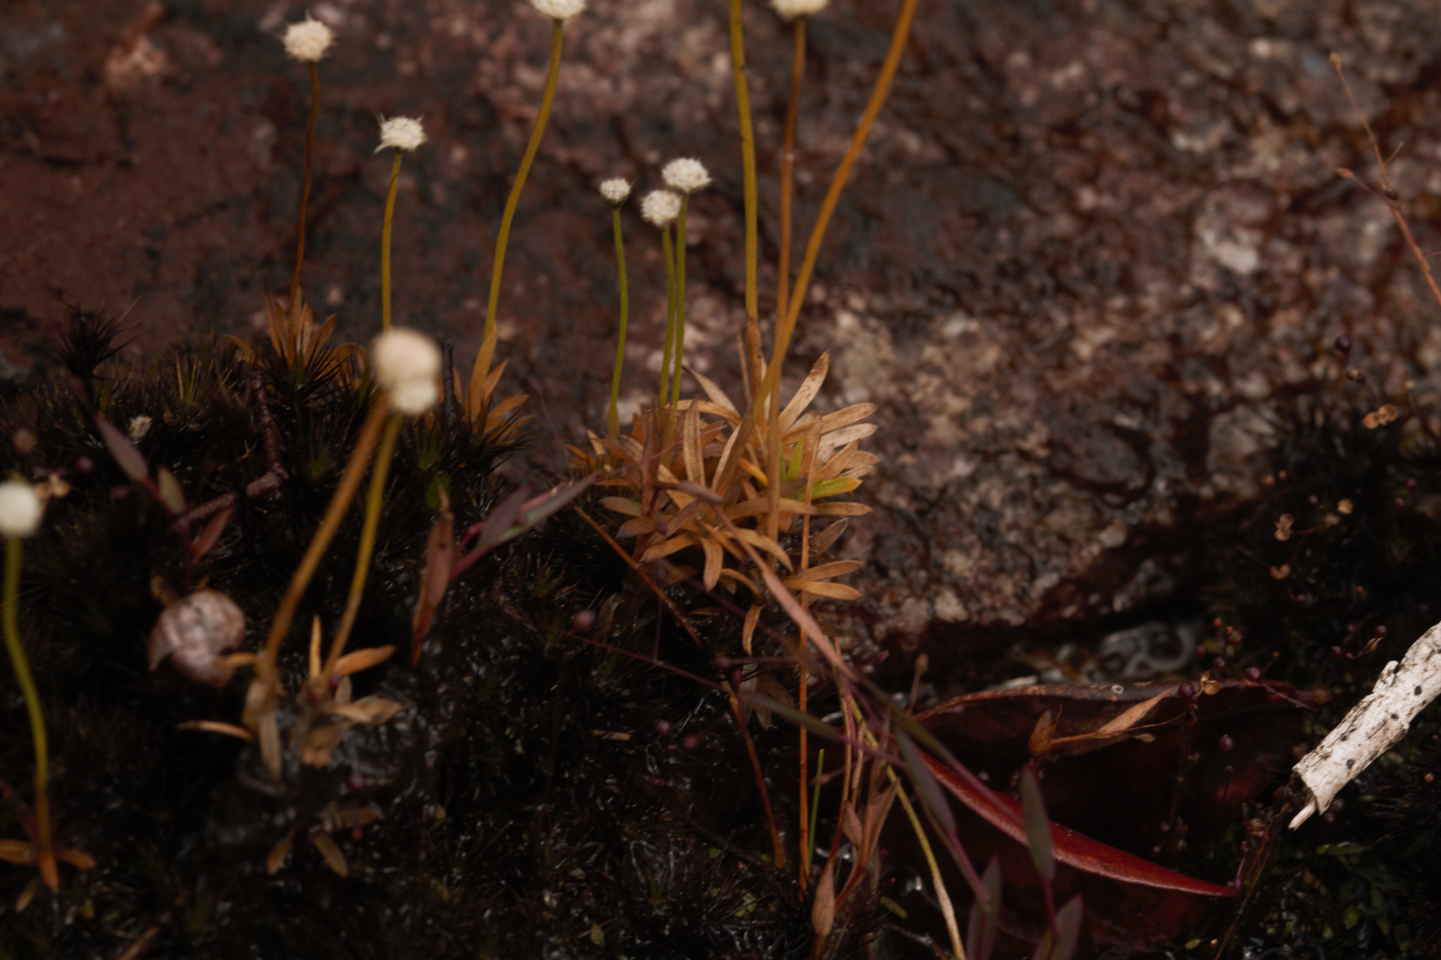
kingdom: Plantae
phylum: Tracheophyta
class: Liliopsida
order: Poales
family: Eriocaulaceae
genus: Paepalanthus
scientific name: Paepalanthus oyapockensis
